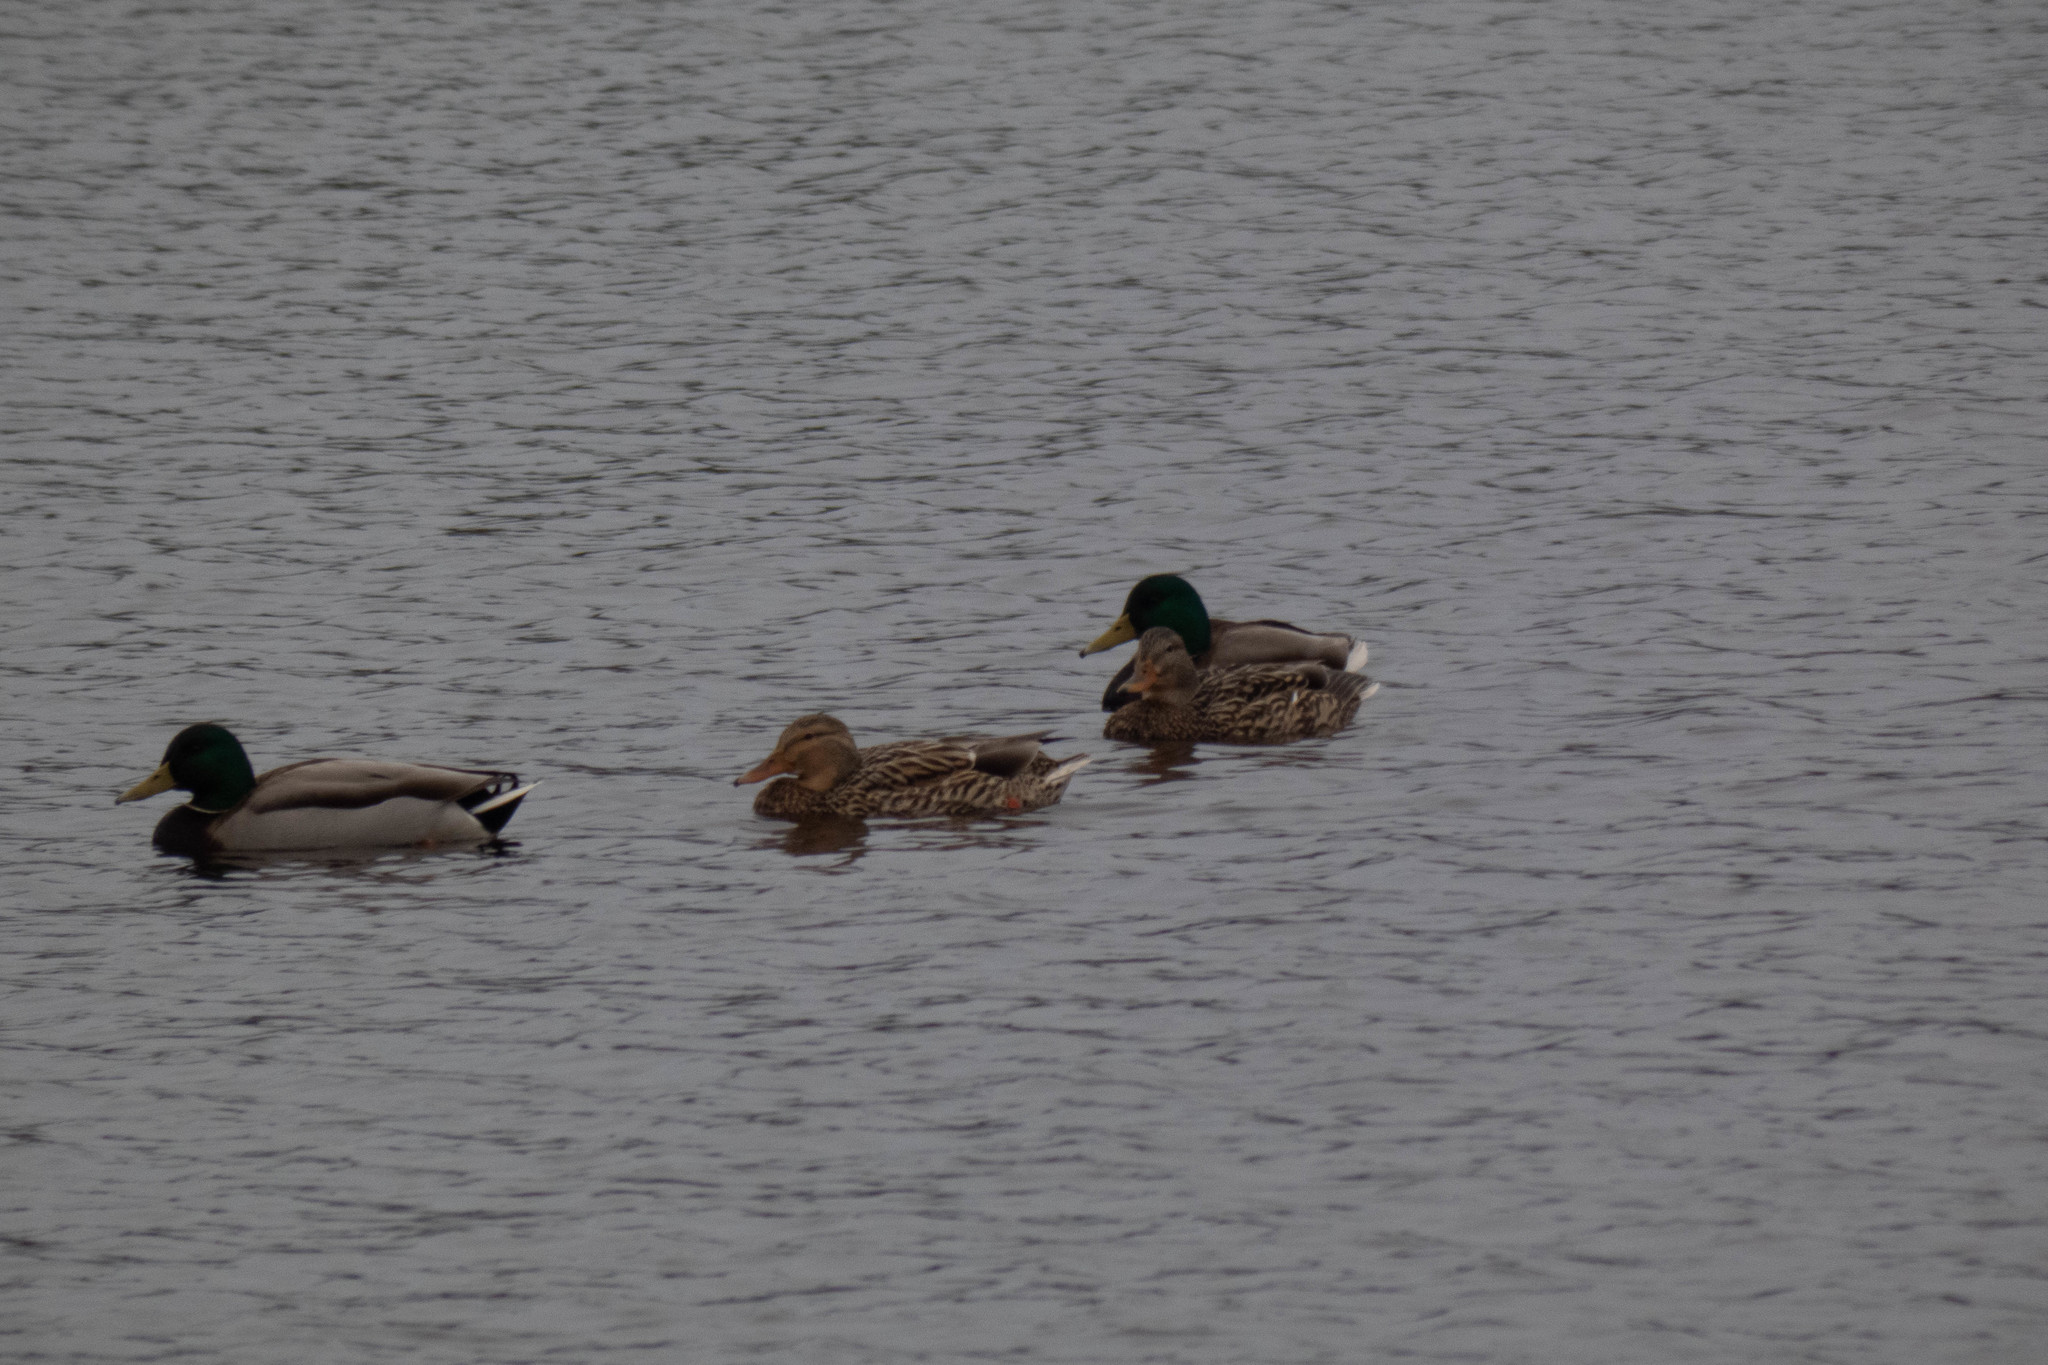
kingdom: Animalia
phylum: Chordata
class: Aves
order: Anseriformes
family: Anatidae
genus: Anas
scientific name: Anas platyrhynchos
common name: Mallard
